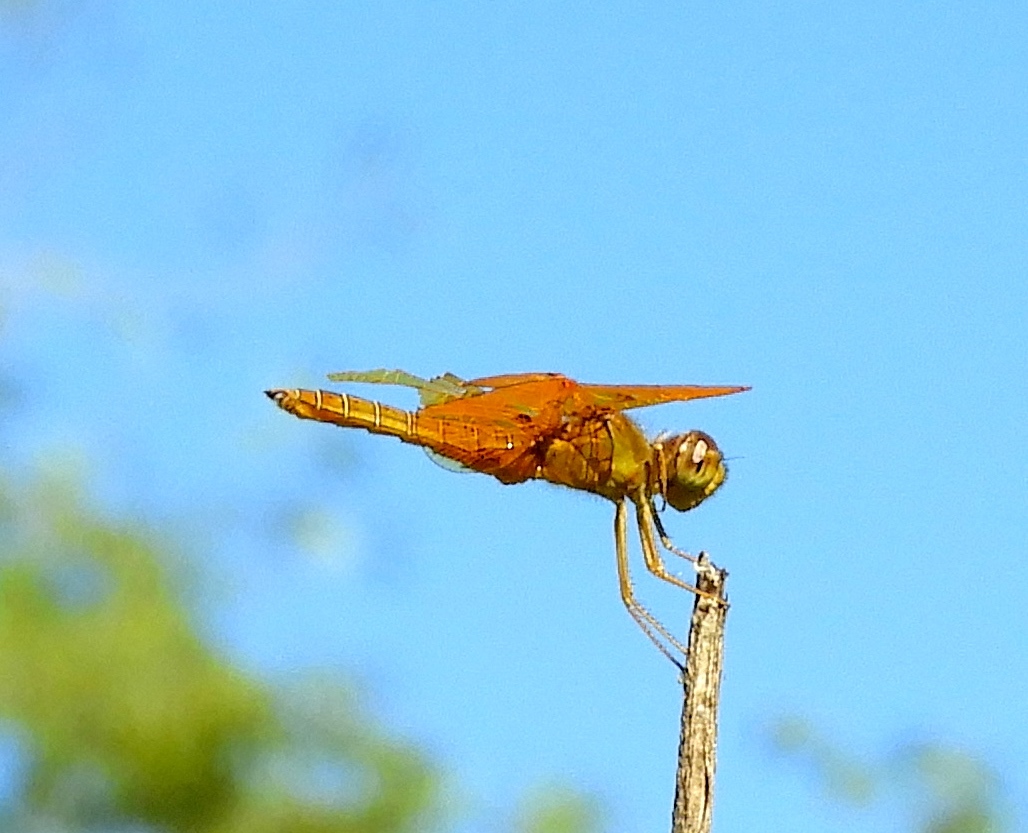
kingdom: Animalia
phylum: Arthropoda
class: Insecta
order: Odonata
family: Libellulidae
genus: Perithemis
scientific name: Perithemis intensa
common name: Mexican amberwing
